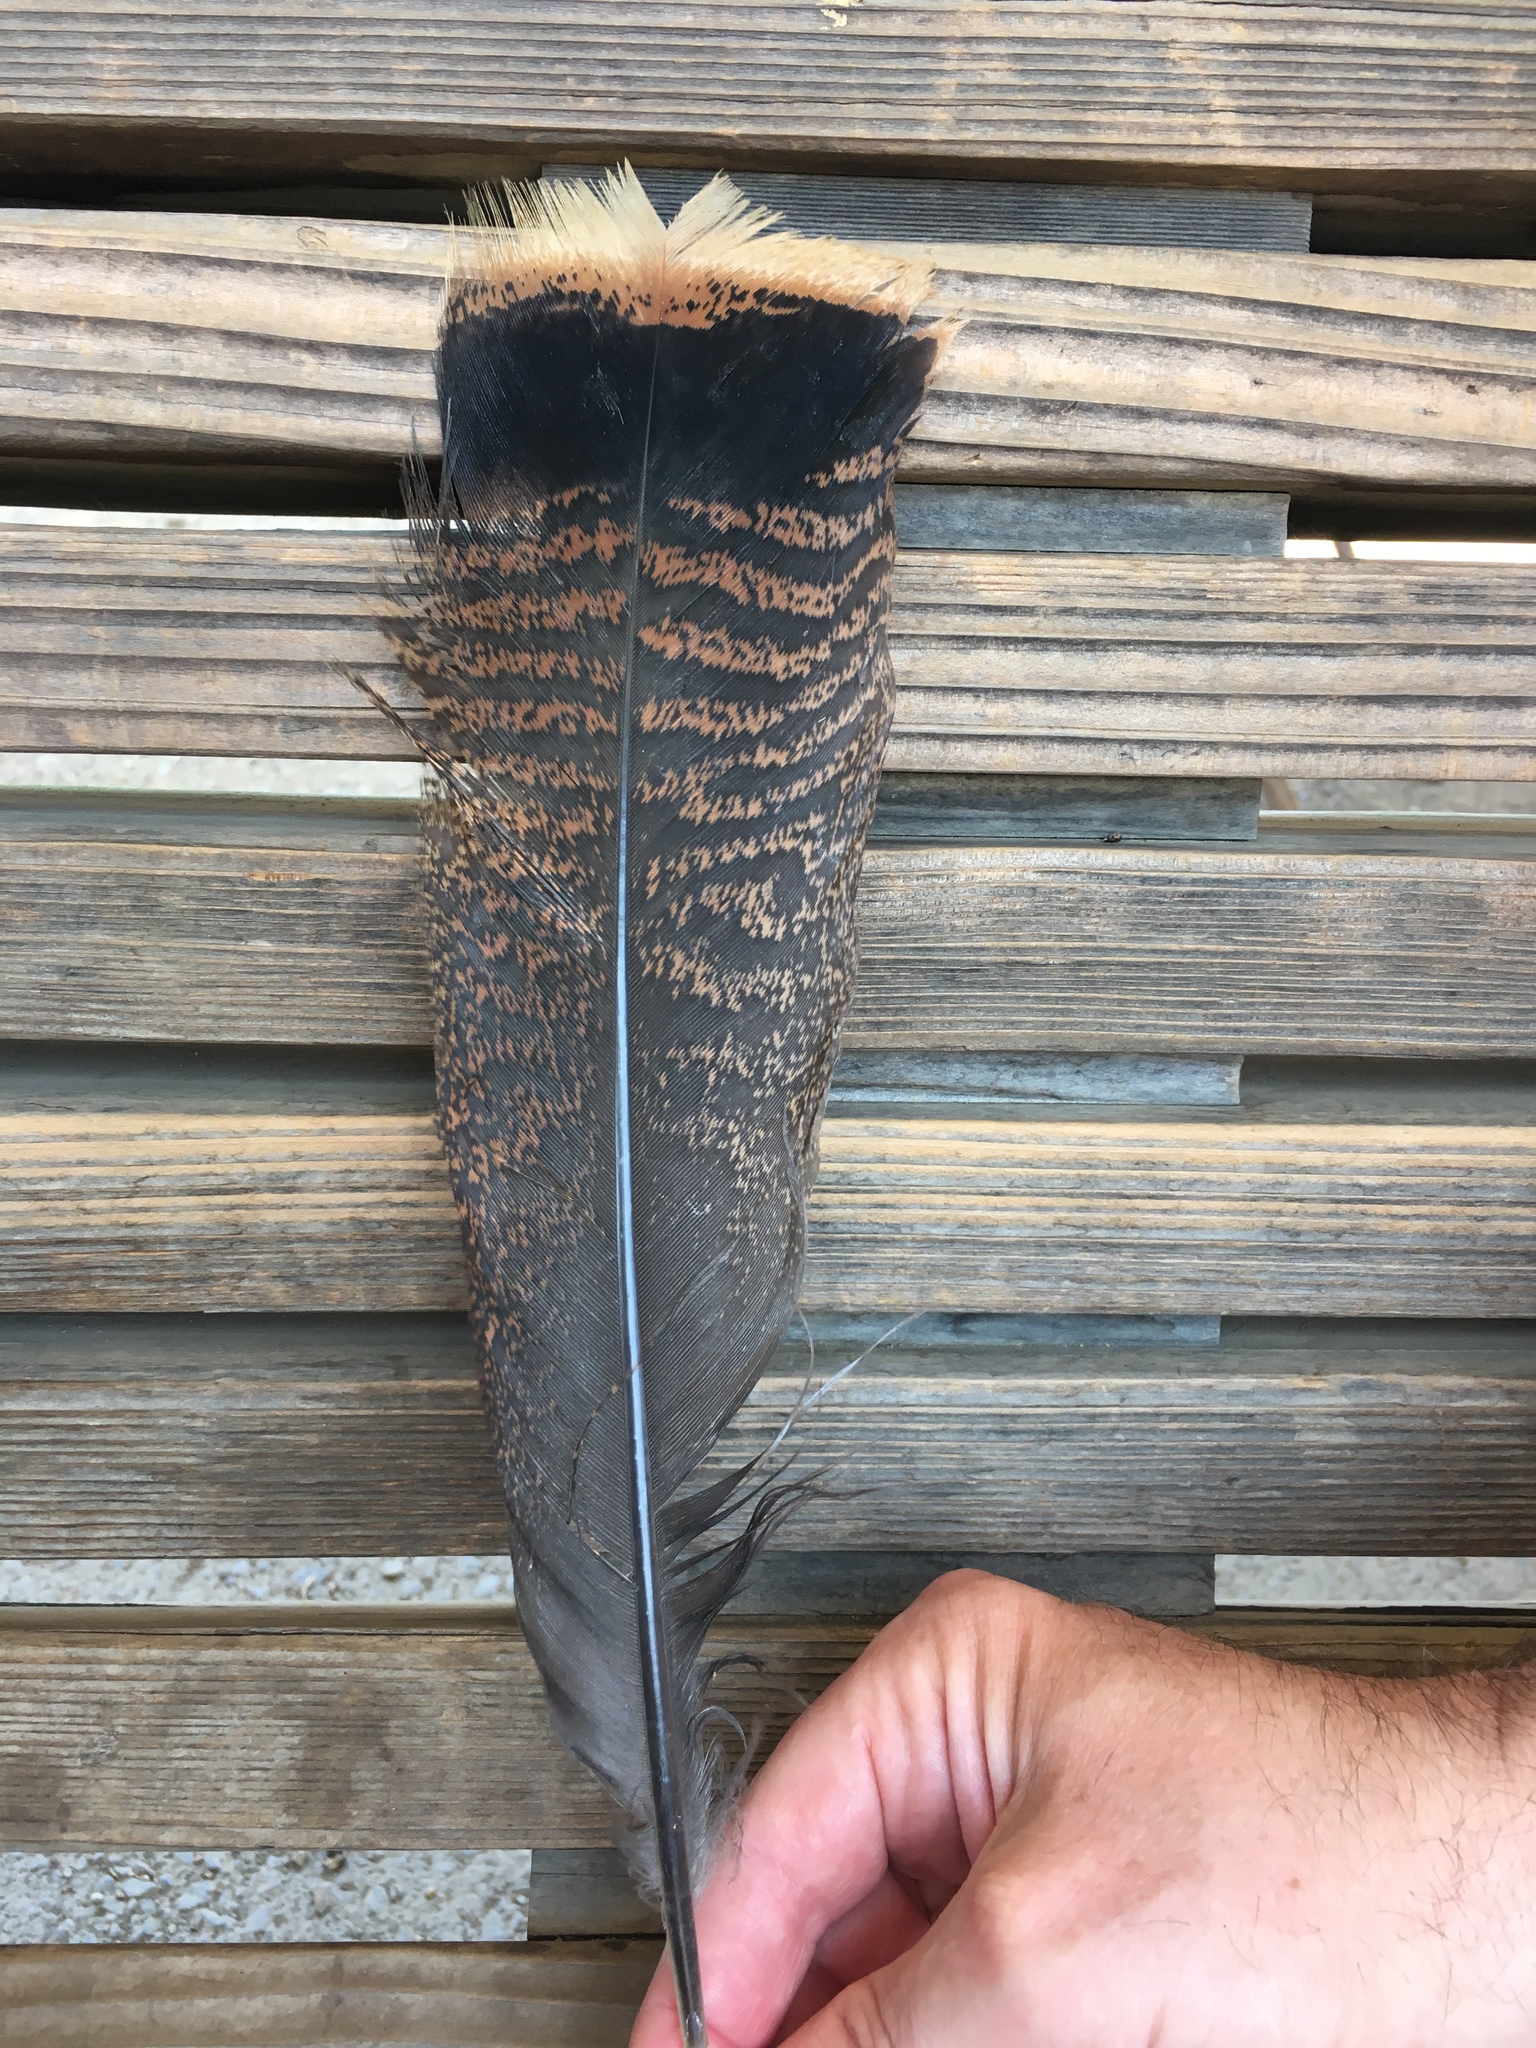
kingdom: Animalia
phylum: Chordata
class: Aves
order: Galliformes
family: Phasianidae
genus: Meleagris
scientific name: Meleagris gallopavo
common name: Wild turkey
